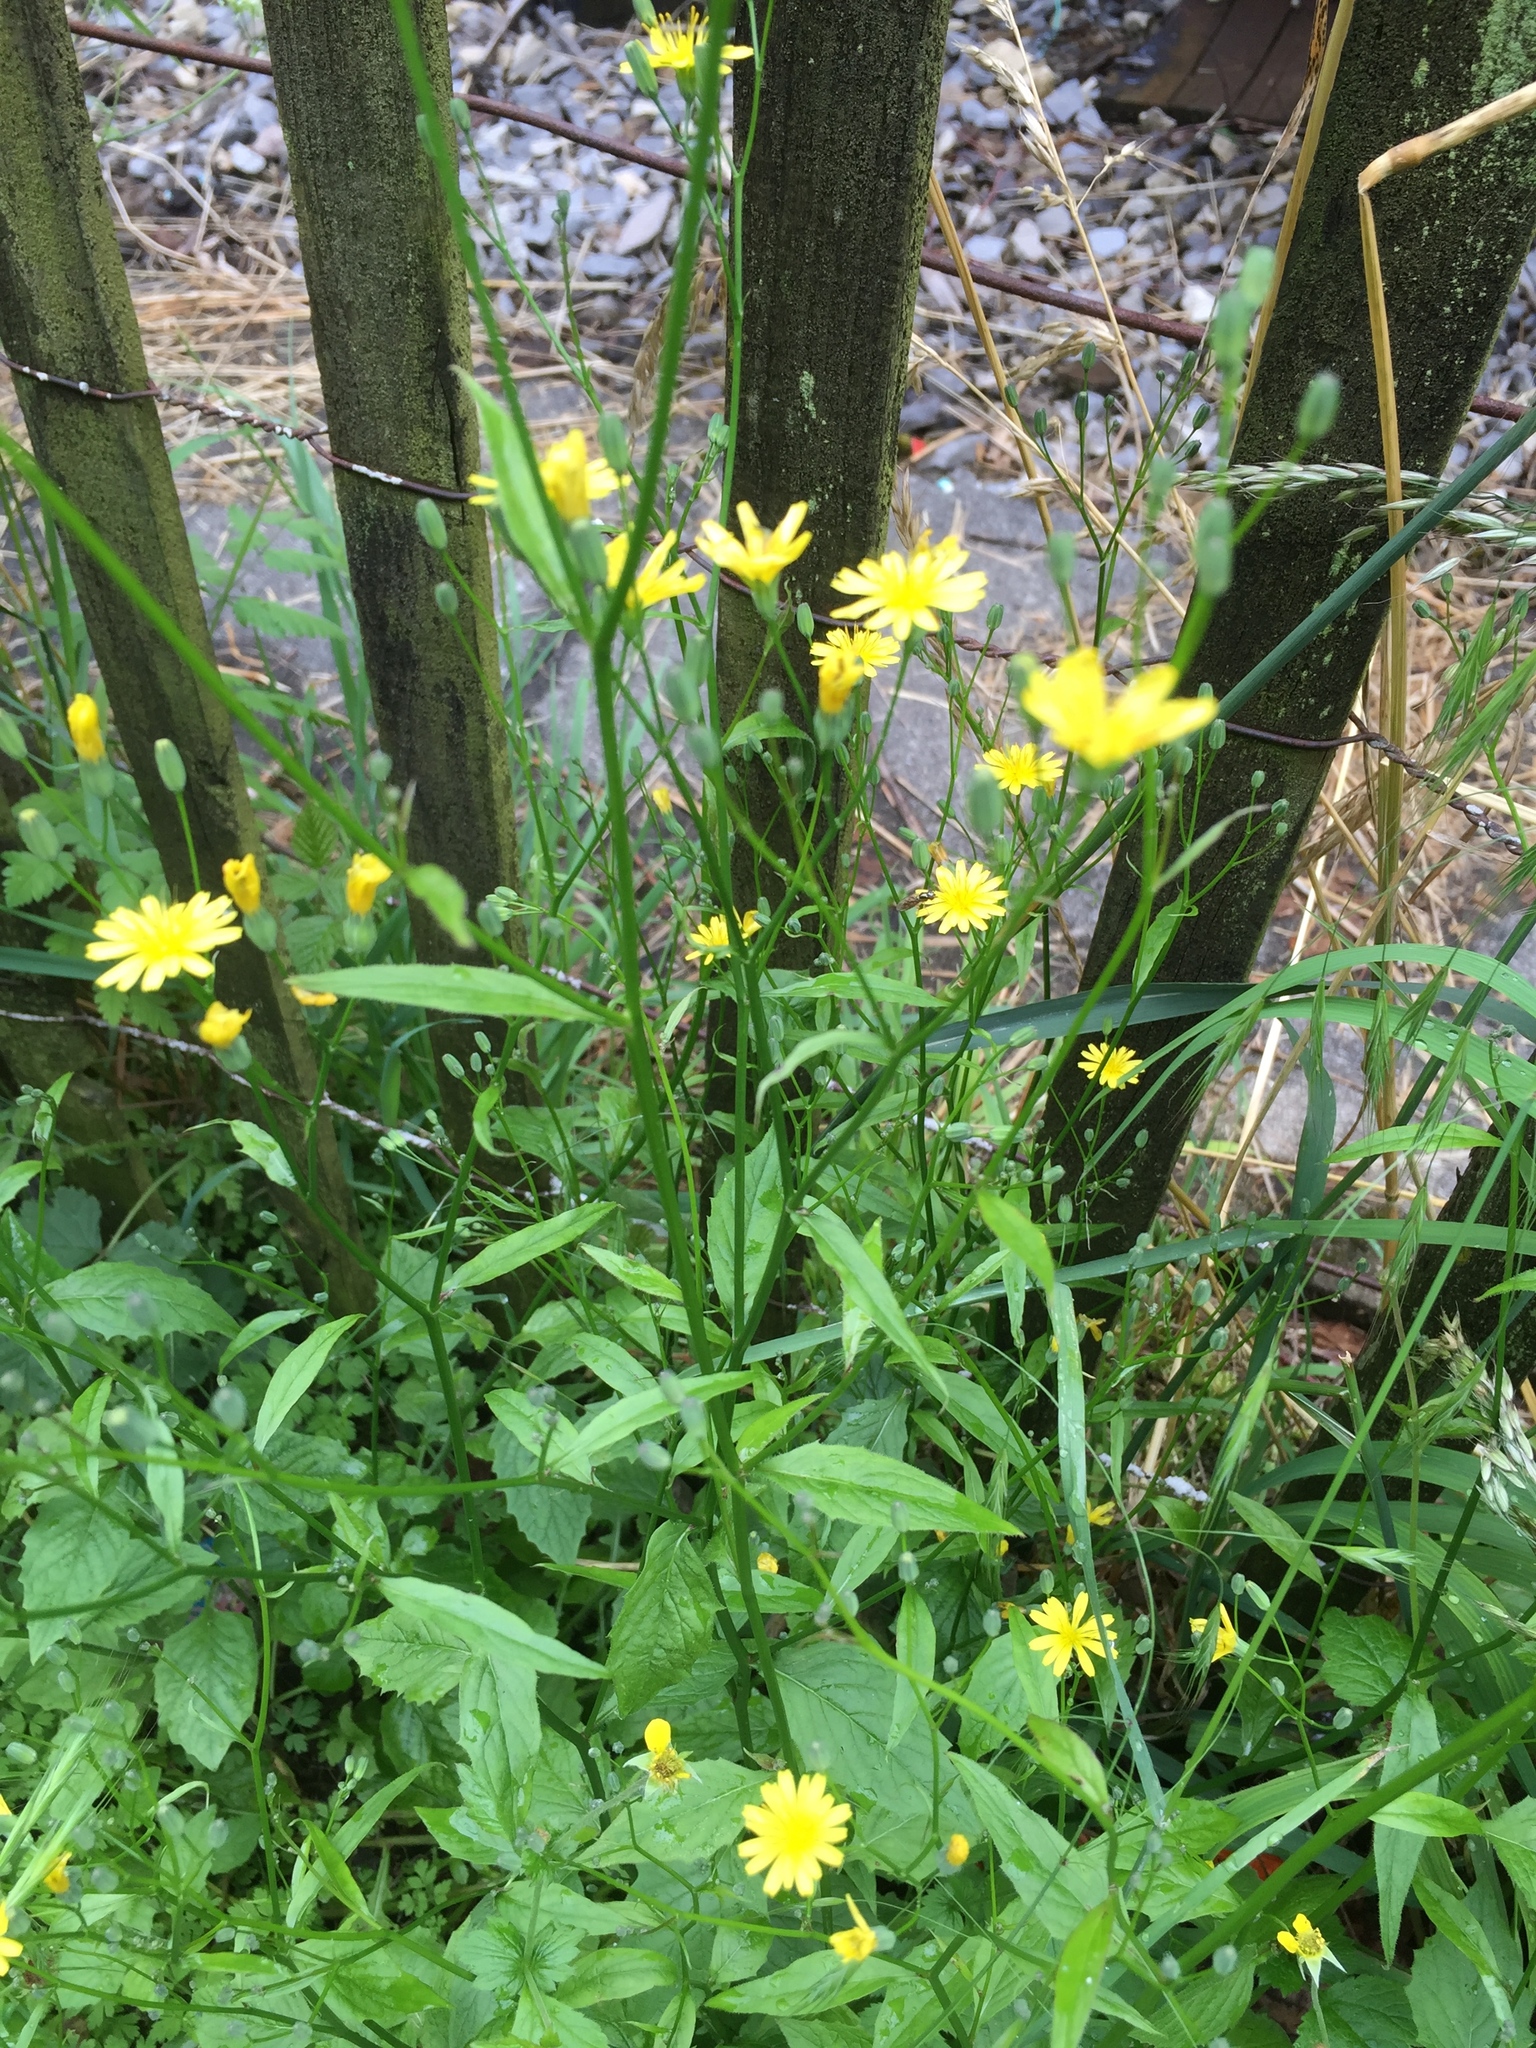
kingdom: Plantae
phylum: Tracheophyta
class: Magnoliopsida
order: Asterales
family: Asteraceae
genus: Lapsana
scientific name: Lapsana communis
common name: Nipplewort
